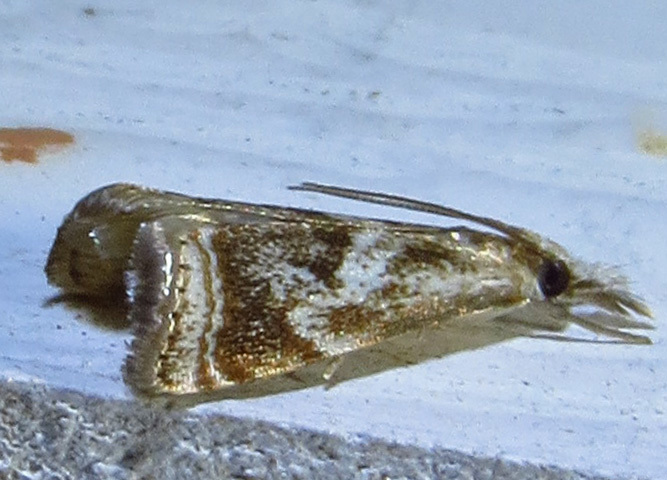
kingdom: Animalia
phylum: Arthropoda
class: Insecta
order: Lepidoptera
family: Crambidae
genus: Microcrambus
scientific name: Microcrambus elegans
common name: Elegant grass-veneer
